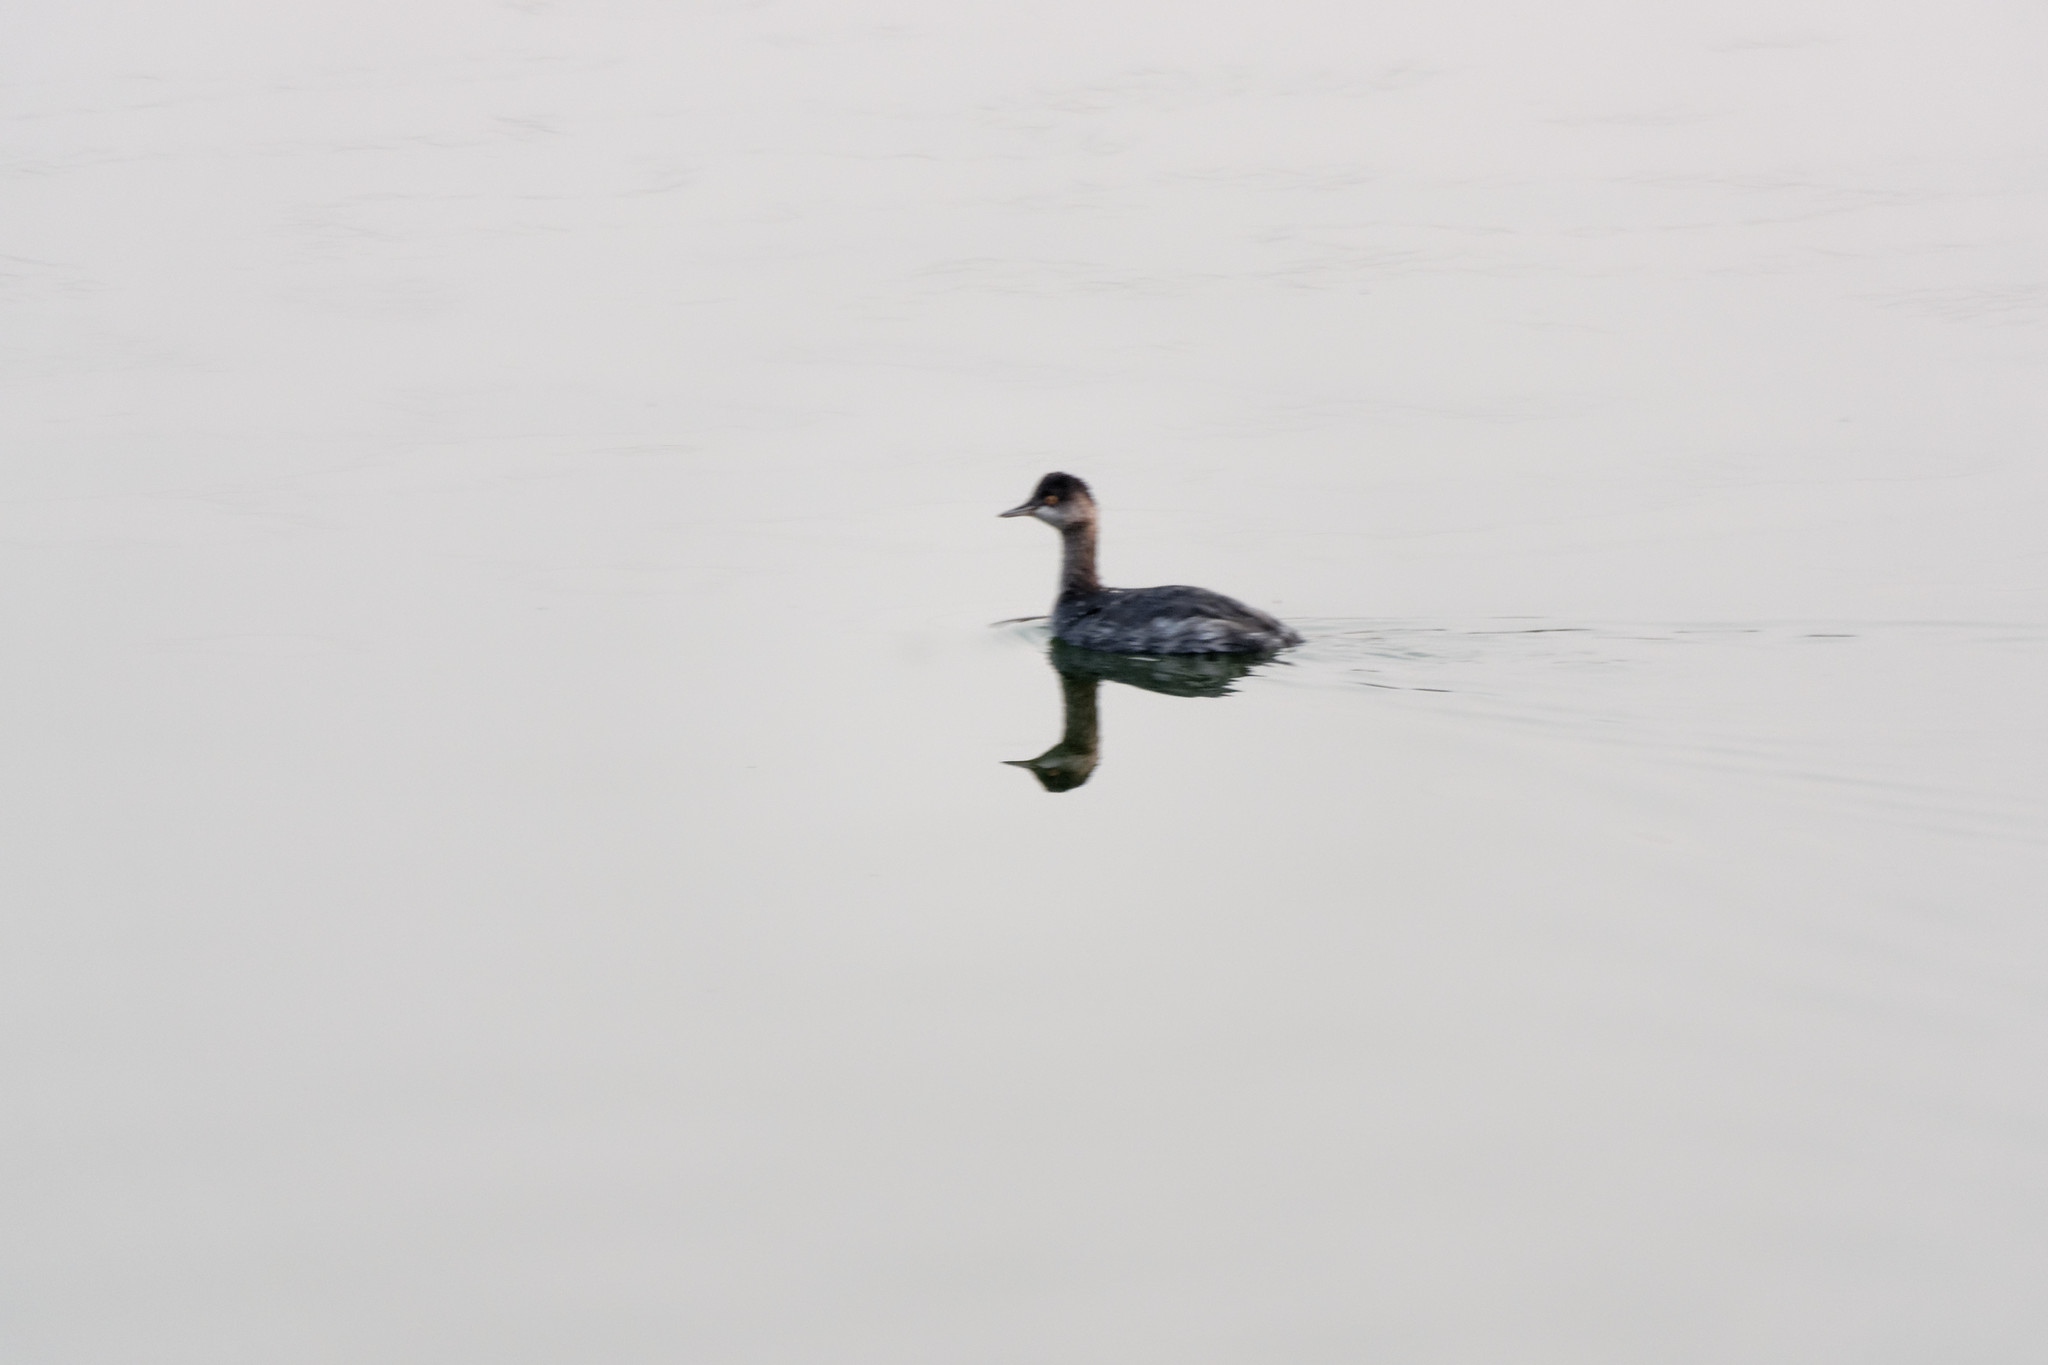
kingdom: Animalia
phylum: Chordata
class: Aves
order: Podicipediformes
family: Podicipedidae
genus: Podiceps
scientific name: Podiceps nigricollis
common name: Black-necked grebe
